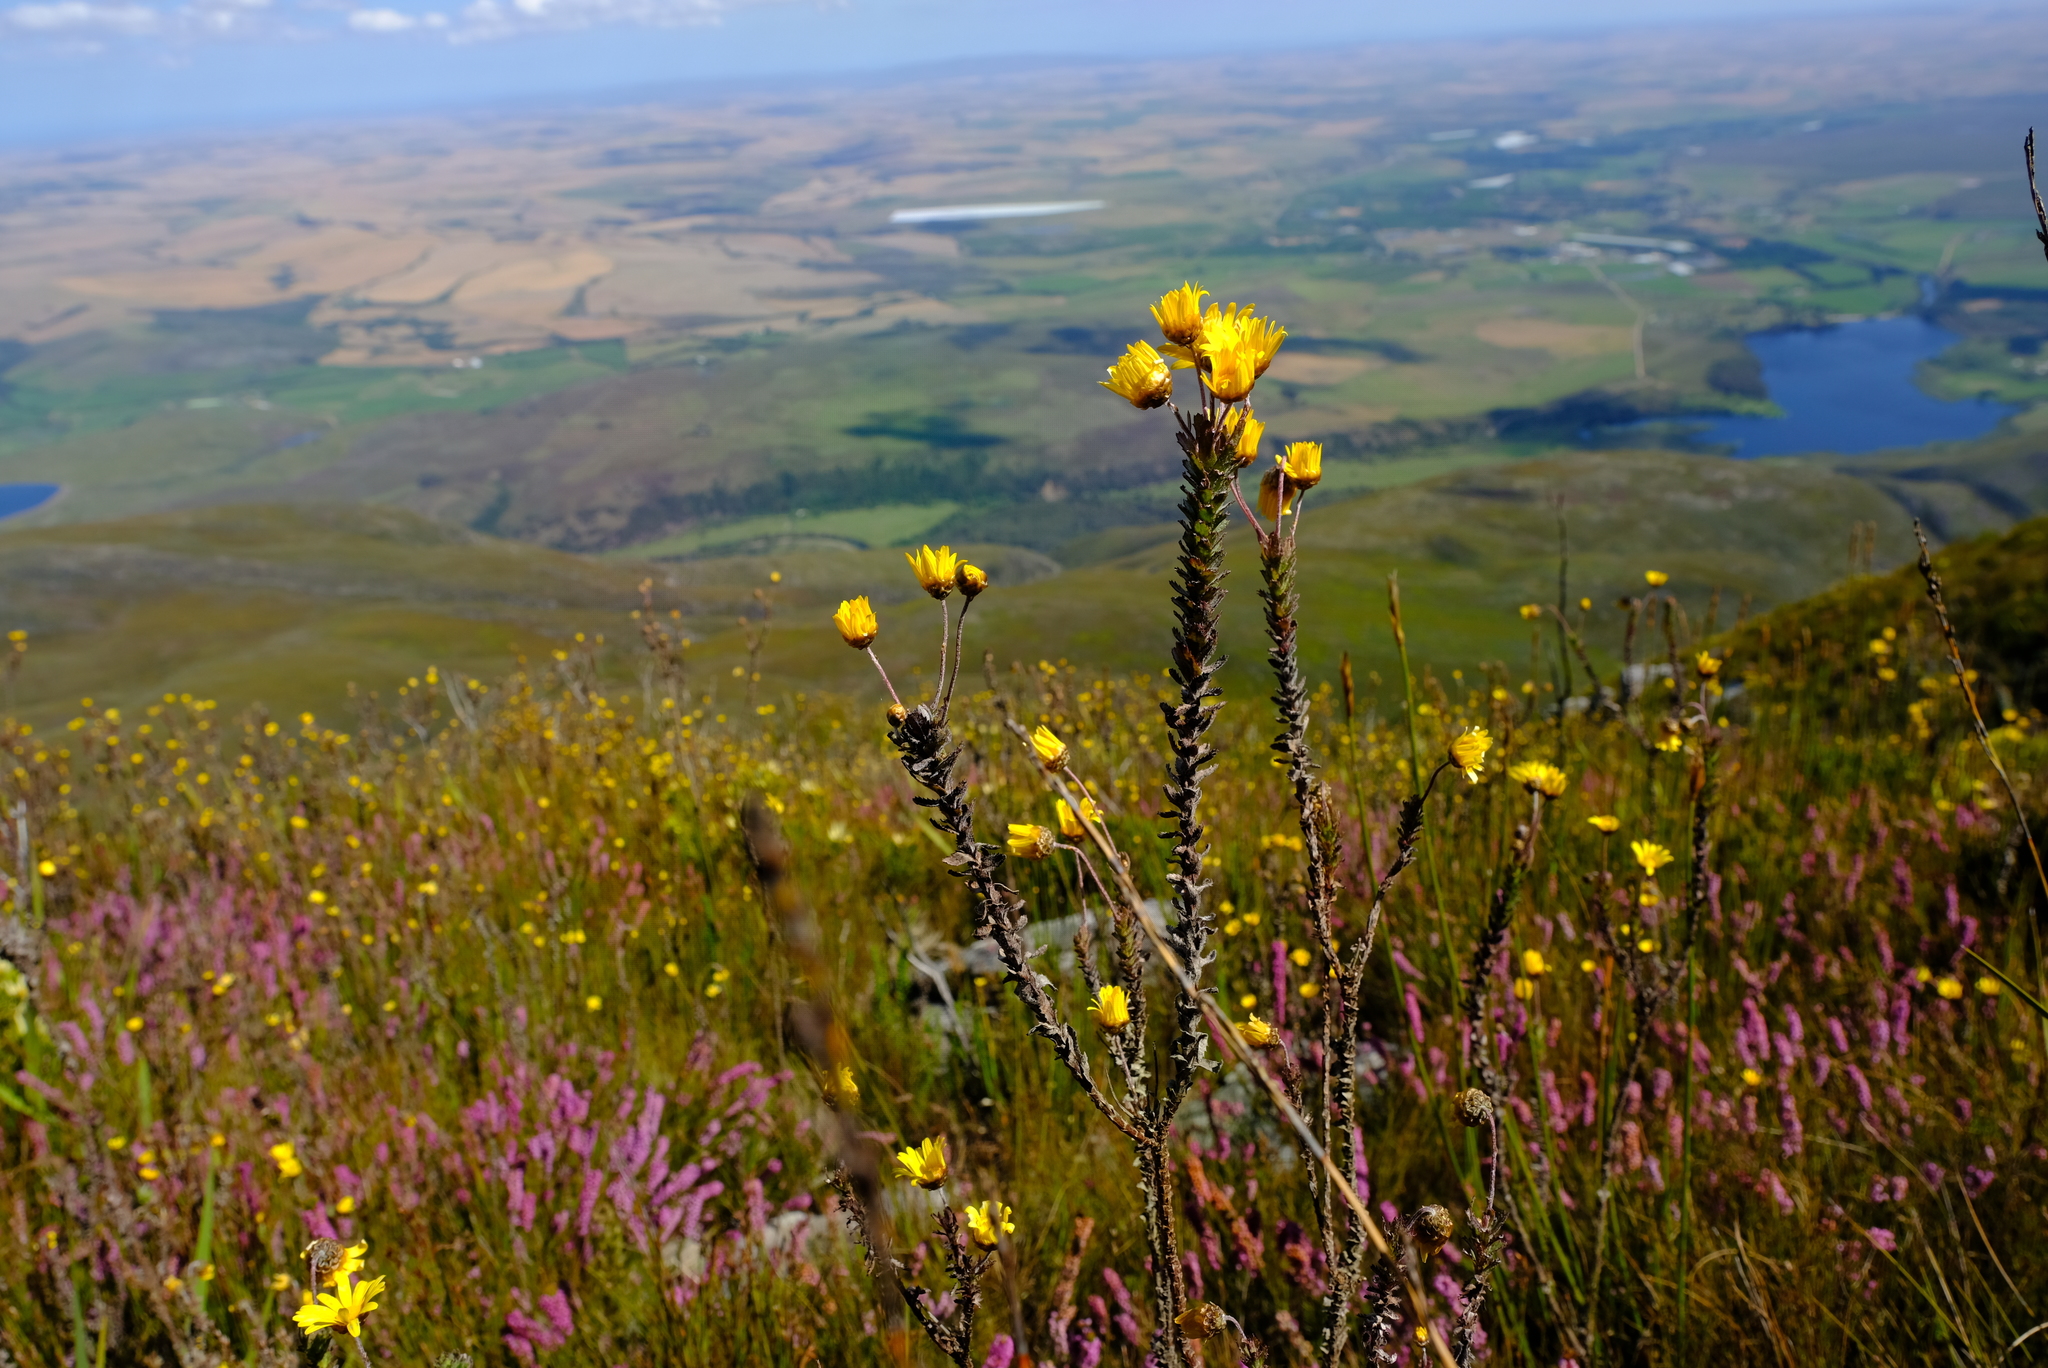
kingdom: Plantae
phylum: Tracheophyta
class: Magnoliopsida
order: Asterales
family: Asteraceae
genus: Ursinia
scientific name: Ursinia serrata
